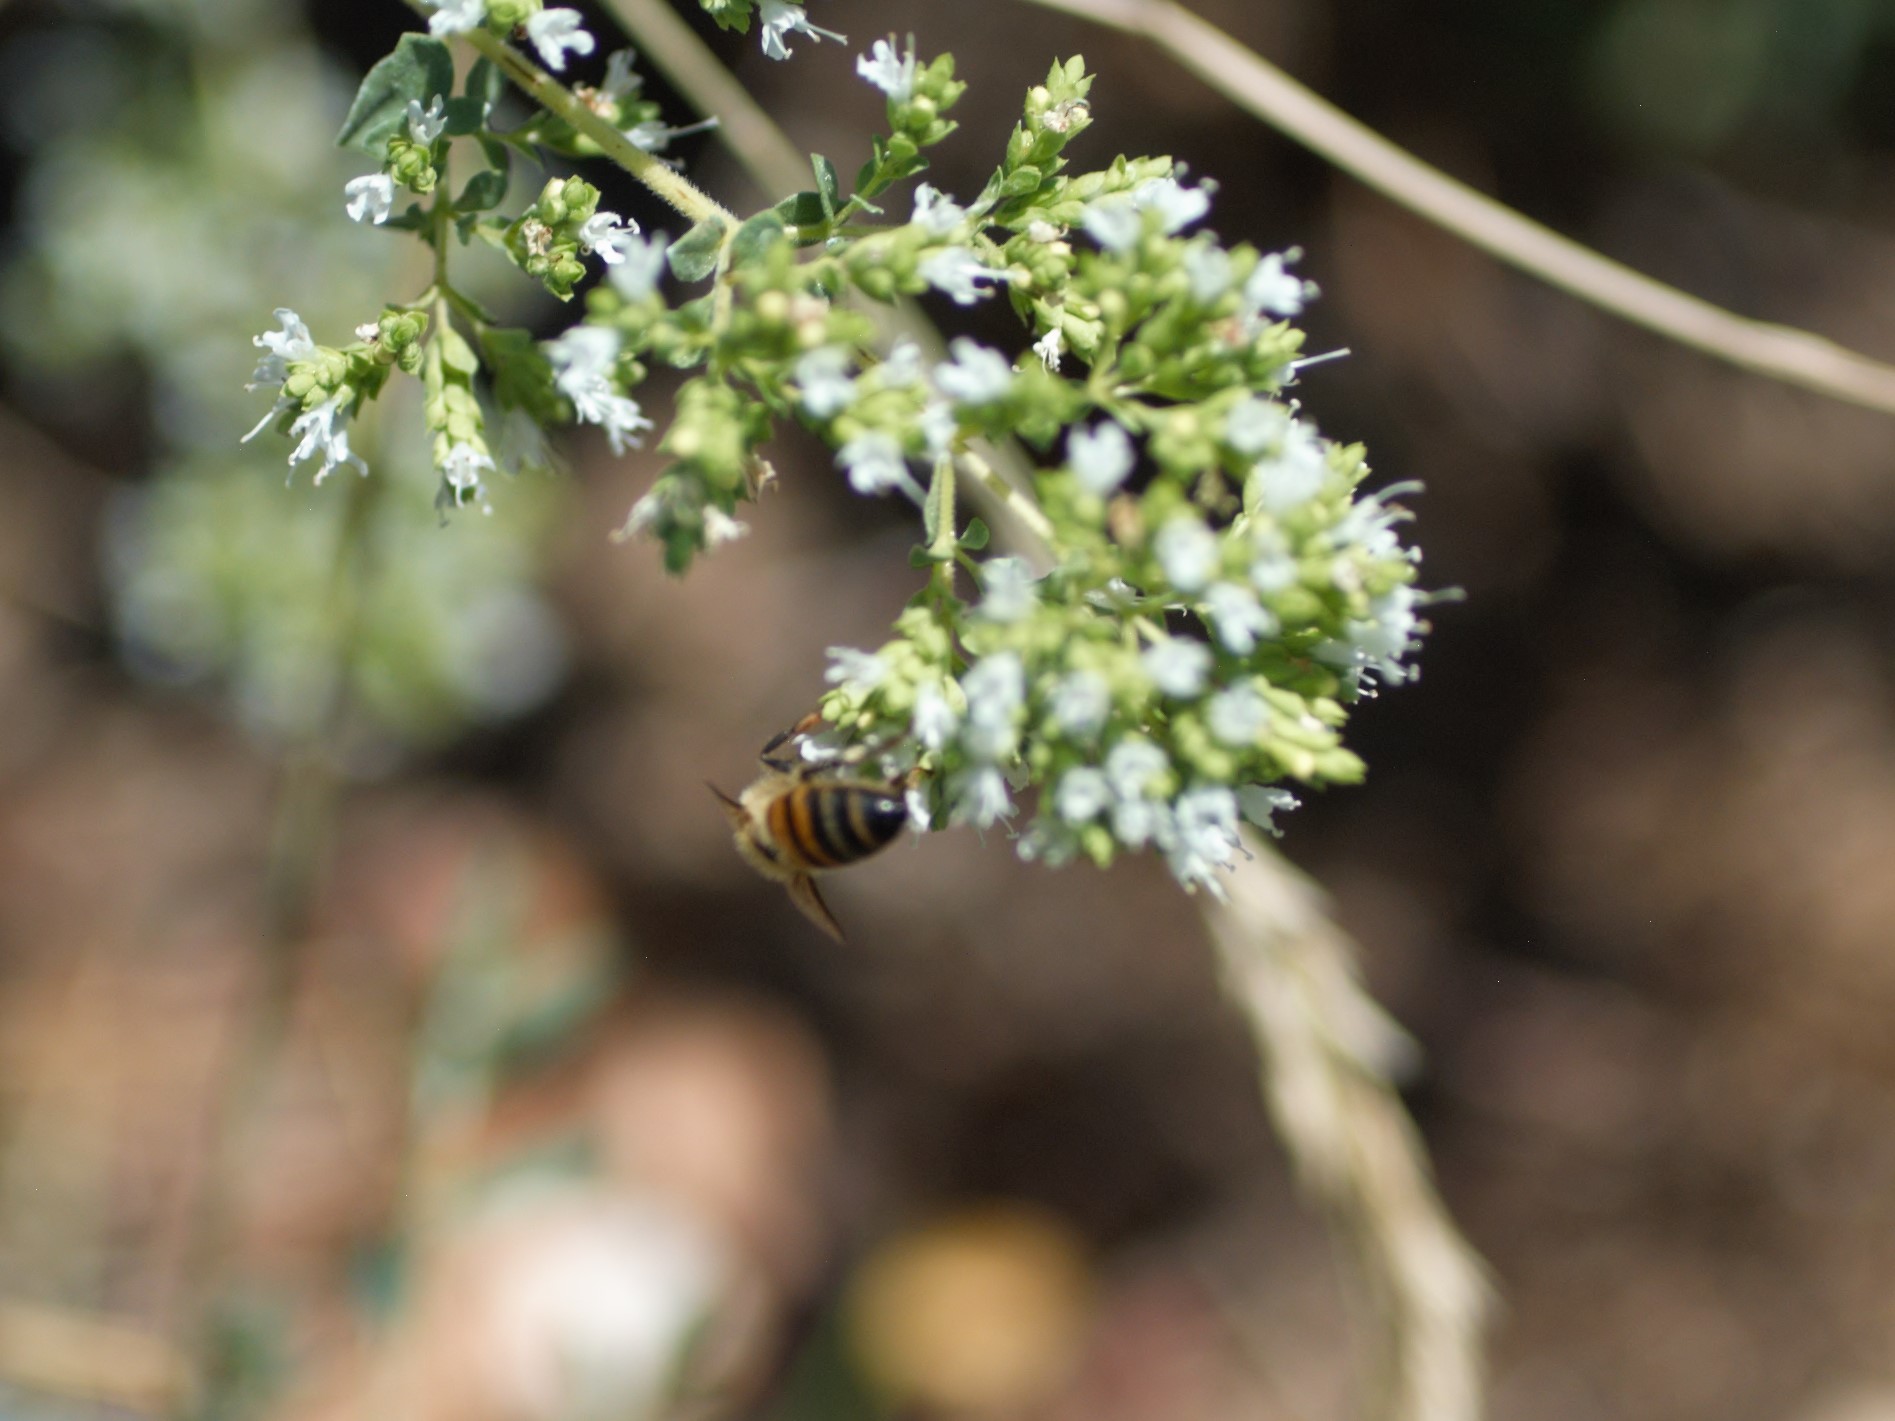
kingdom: Animalia
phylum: Arthropoda
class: Insecta
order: Hymenoptera
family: Apidae
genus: Apis
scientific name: Apis mellifera
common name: Honey bee
